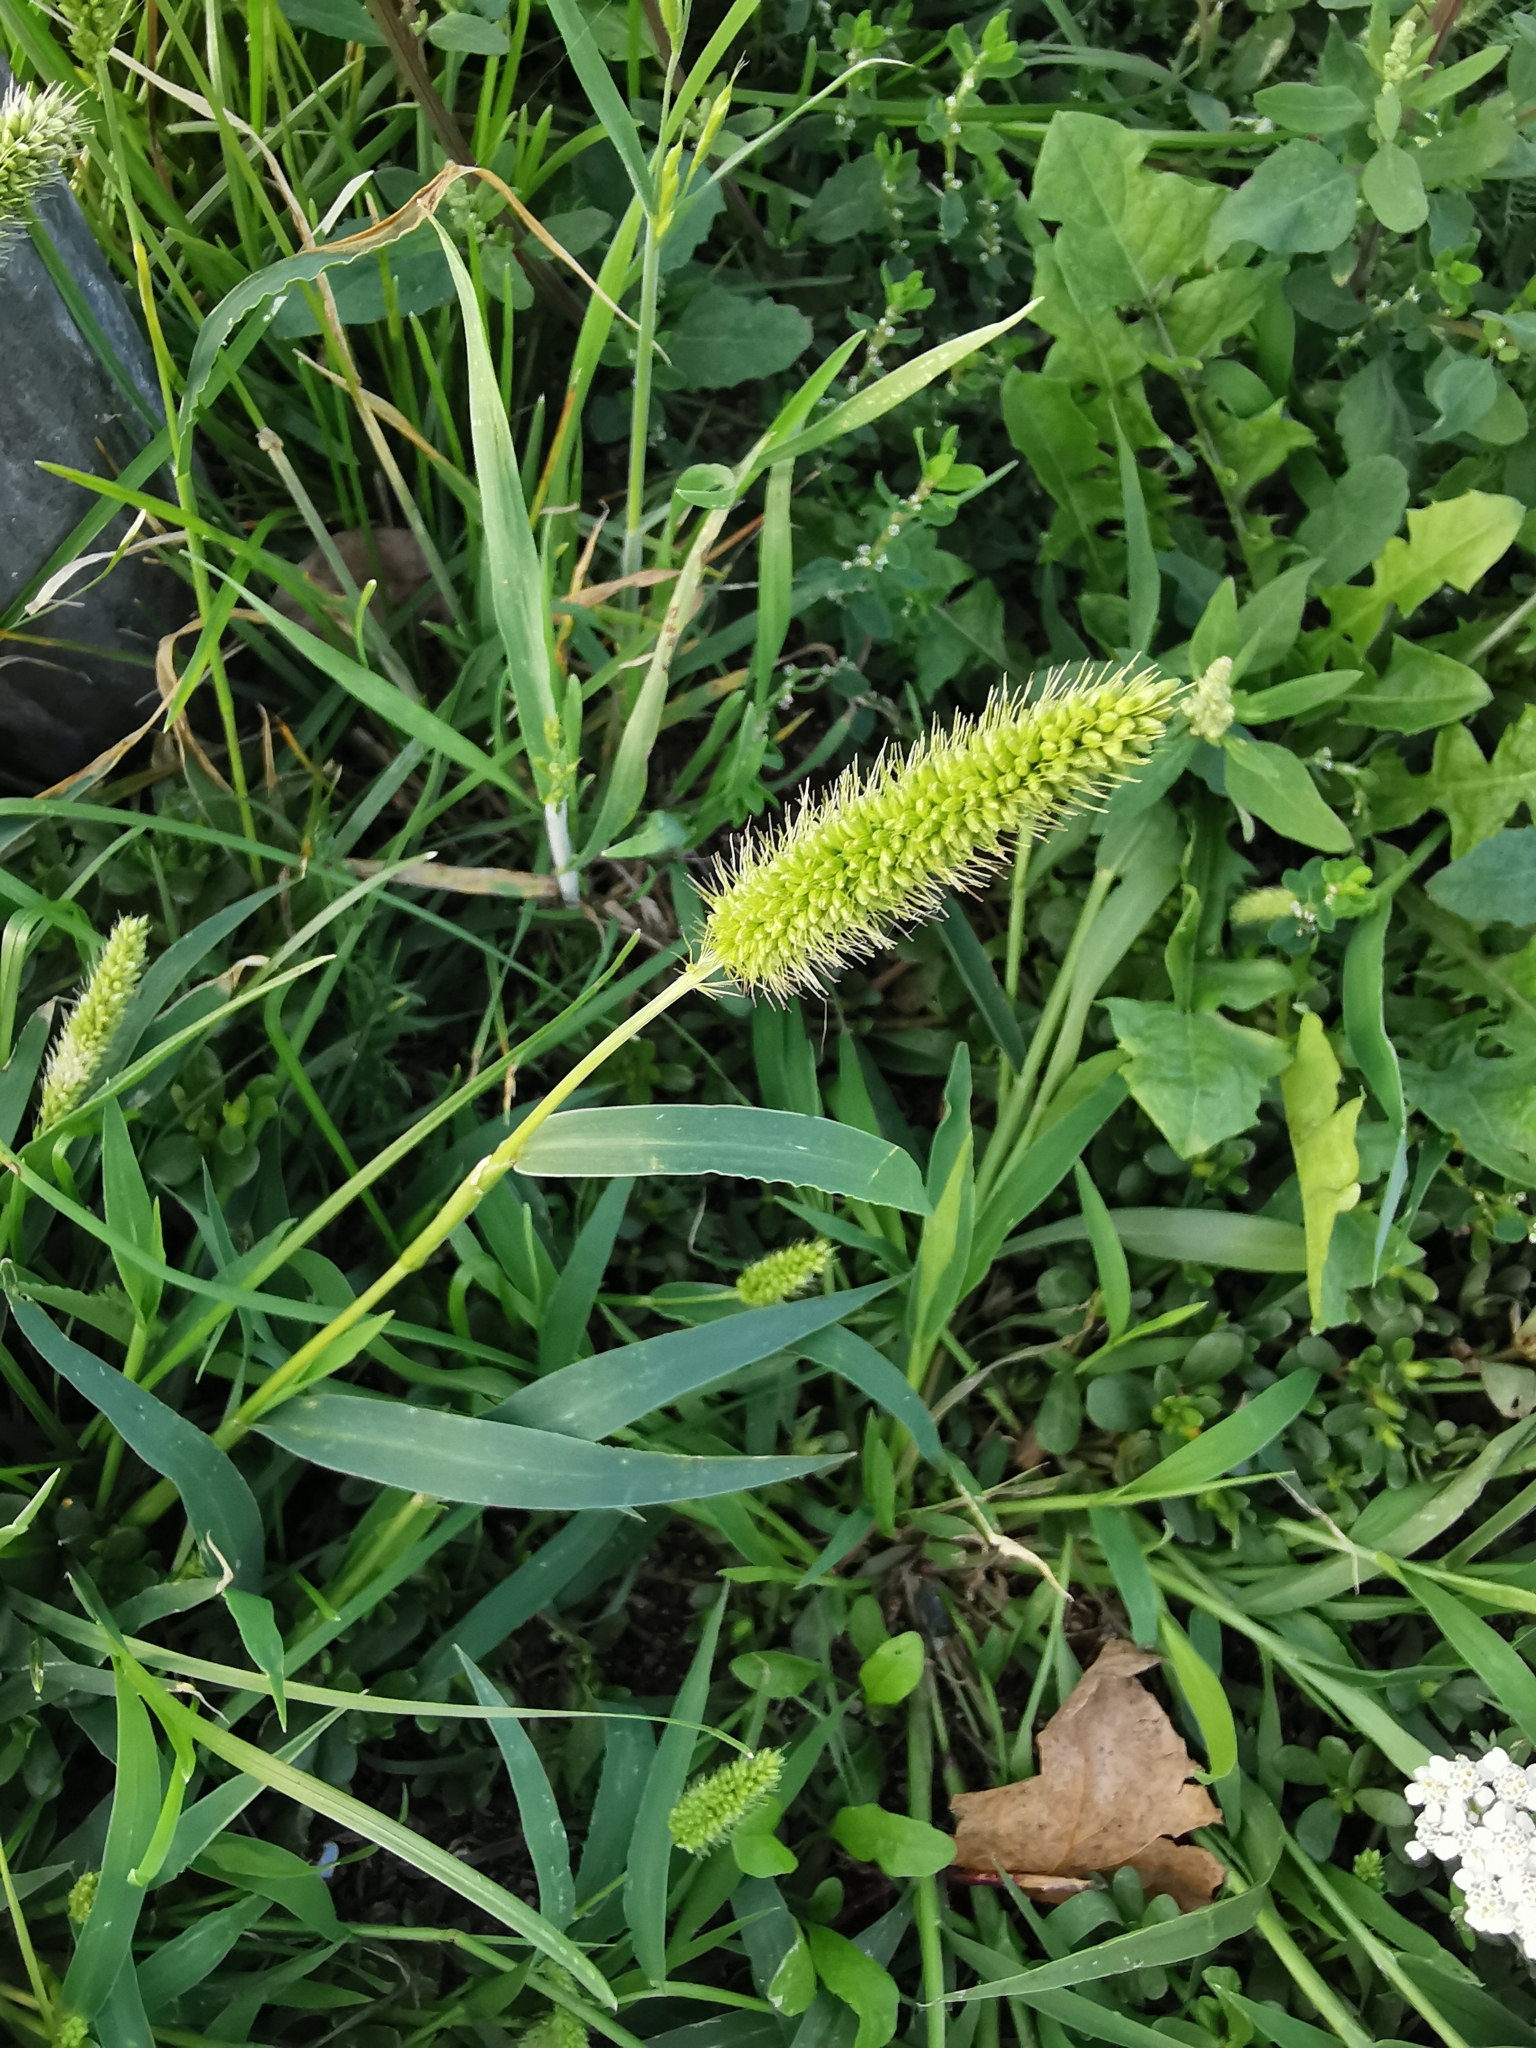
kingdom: Plantae
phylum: Tracheophyta
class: Liliopsida
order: Poales
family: Poaceae
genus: Setaria
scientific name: Setaria viridis
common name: Green bristlegrass
